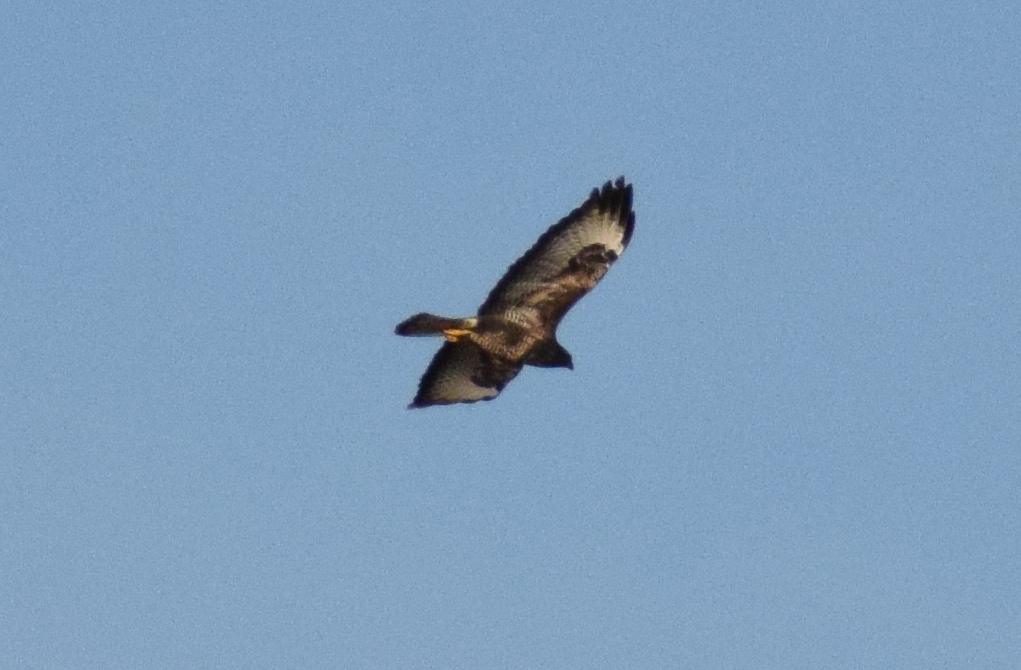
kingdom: Animalia
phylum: Chordata
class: Aves
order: Accipitriformes
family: Accipitridae
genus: Buteo
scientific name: Buteo buteo
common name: Common buzzard
